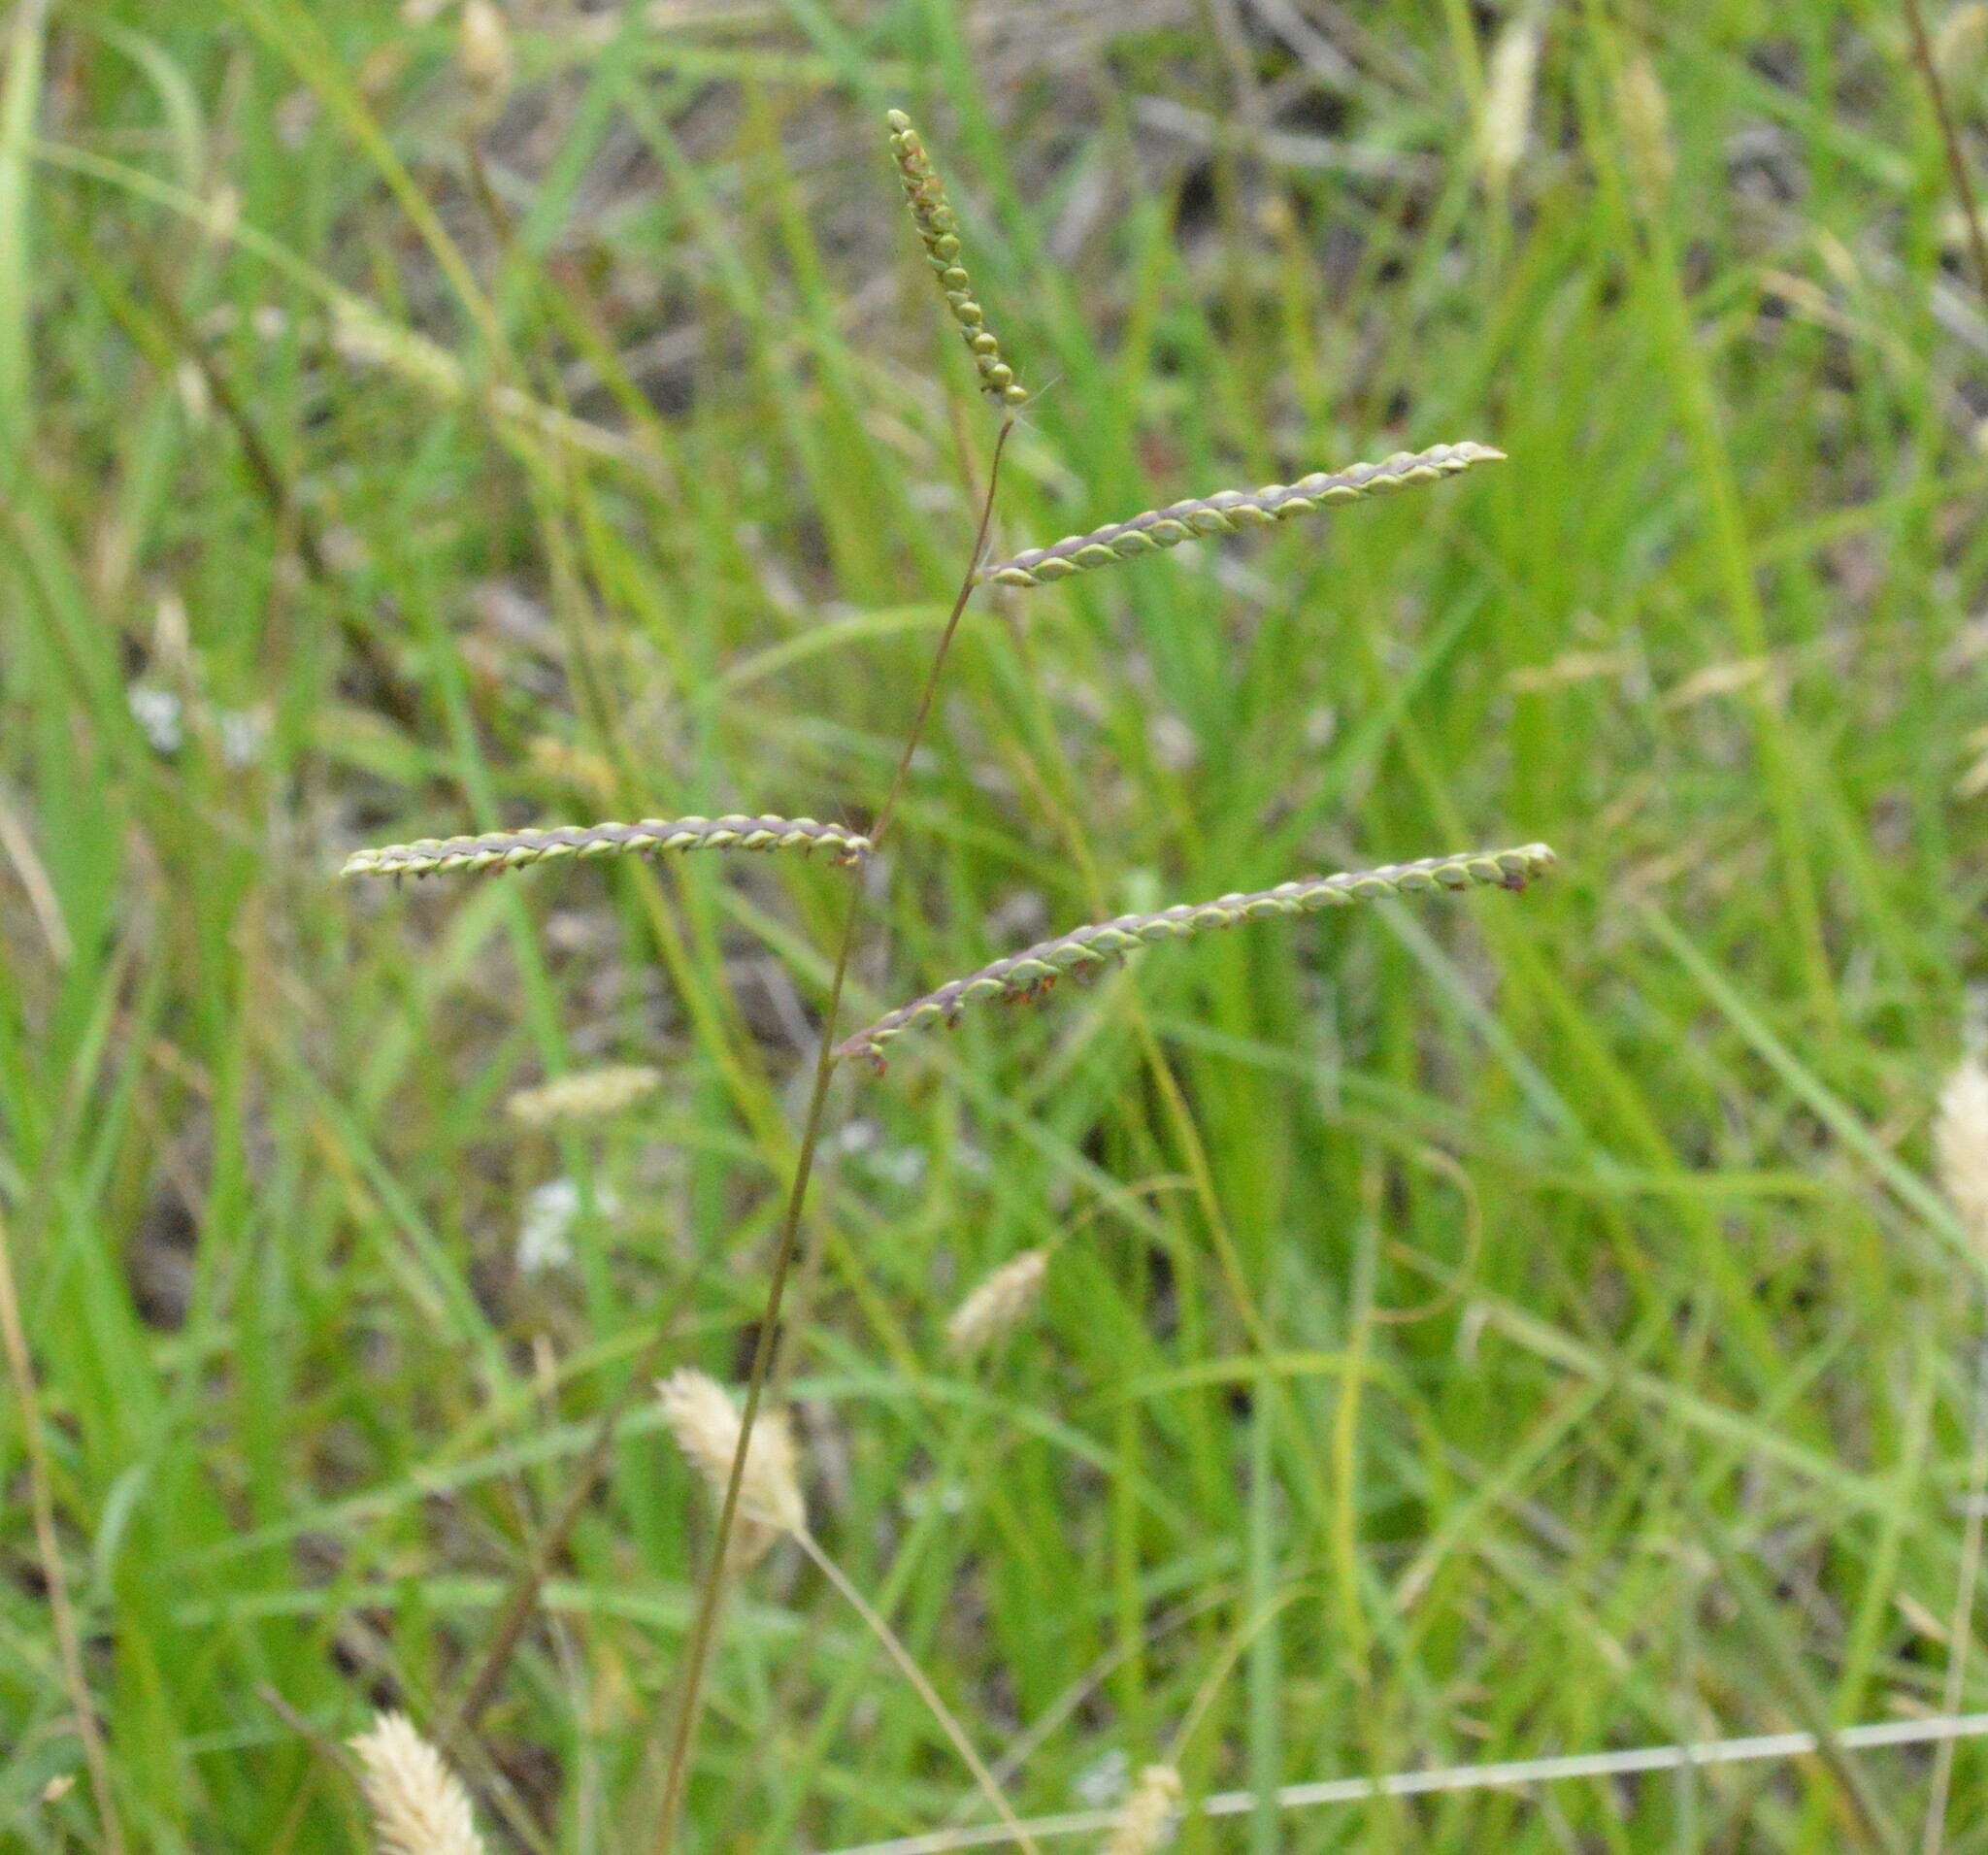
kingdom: Plantae
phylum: Tracheophyta
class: Liliopsida
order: Poales
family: Poaceae
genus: Paspalum
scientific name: Paspalum plicatulum
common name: Top paspalum
